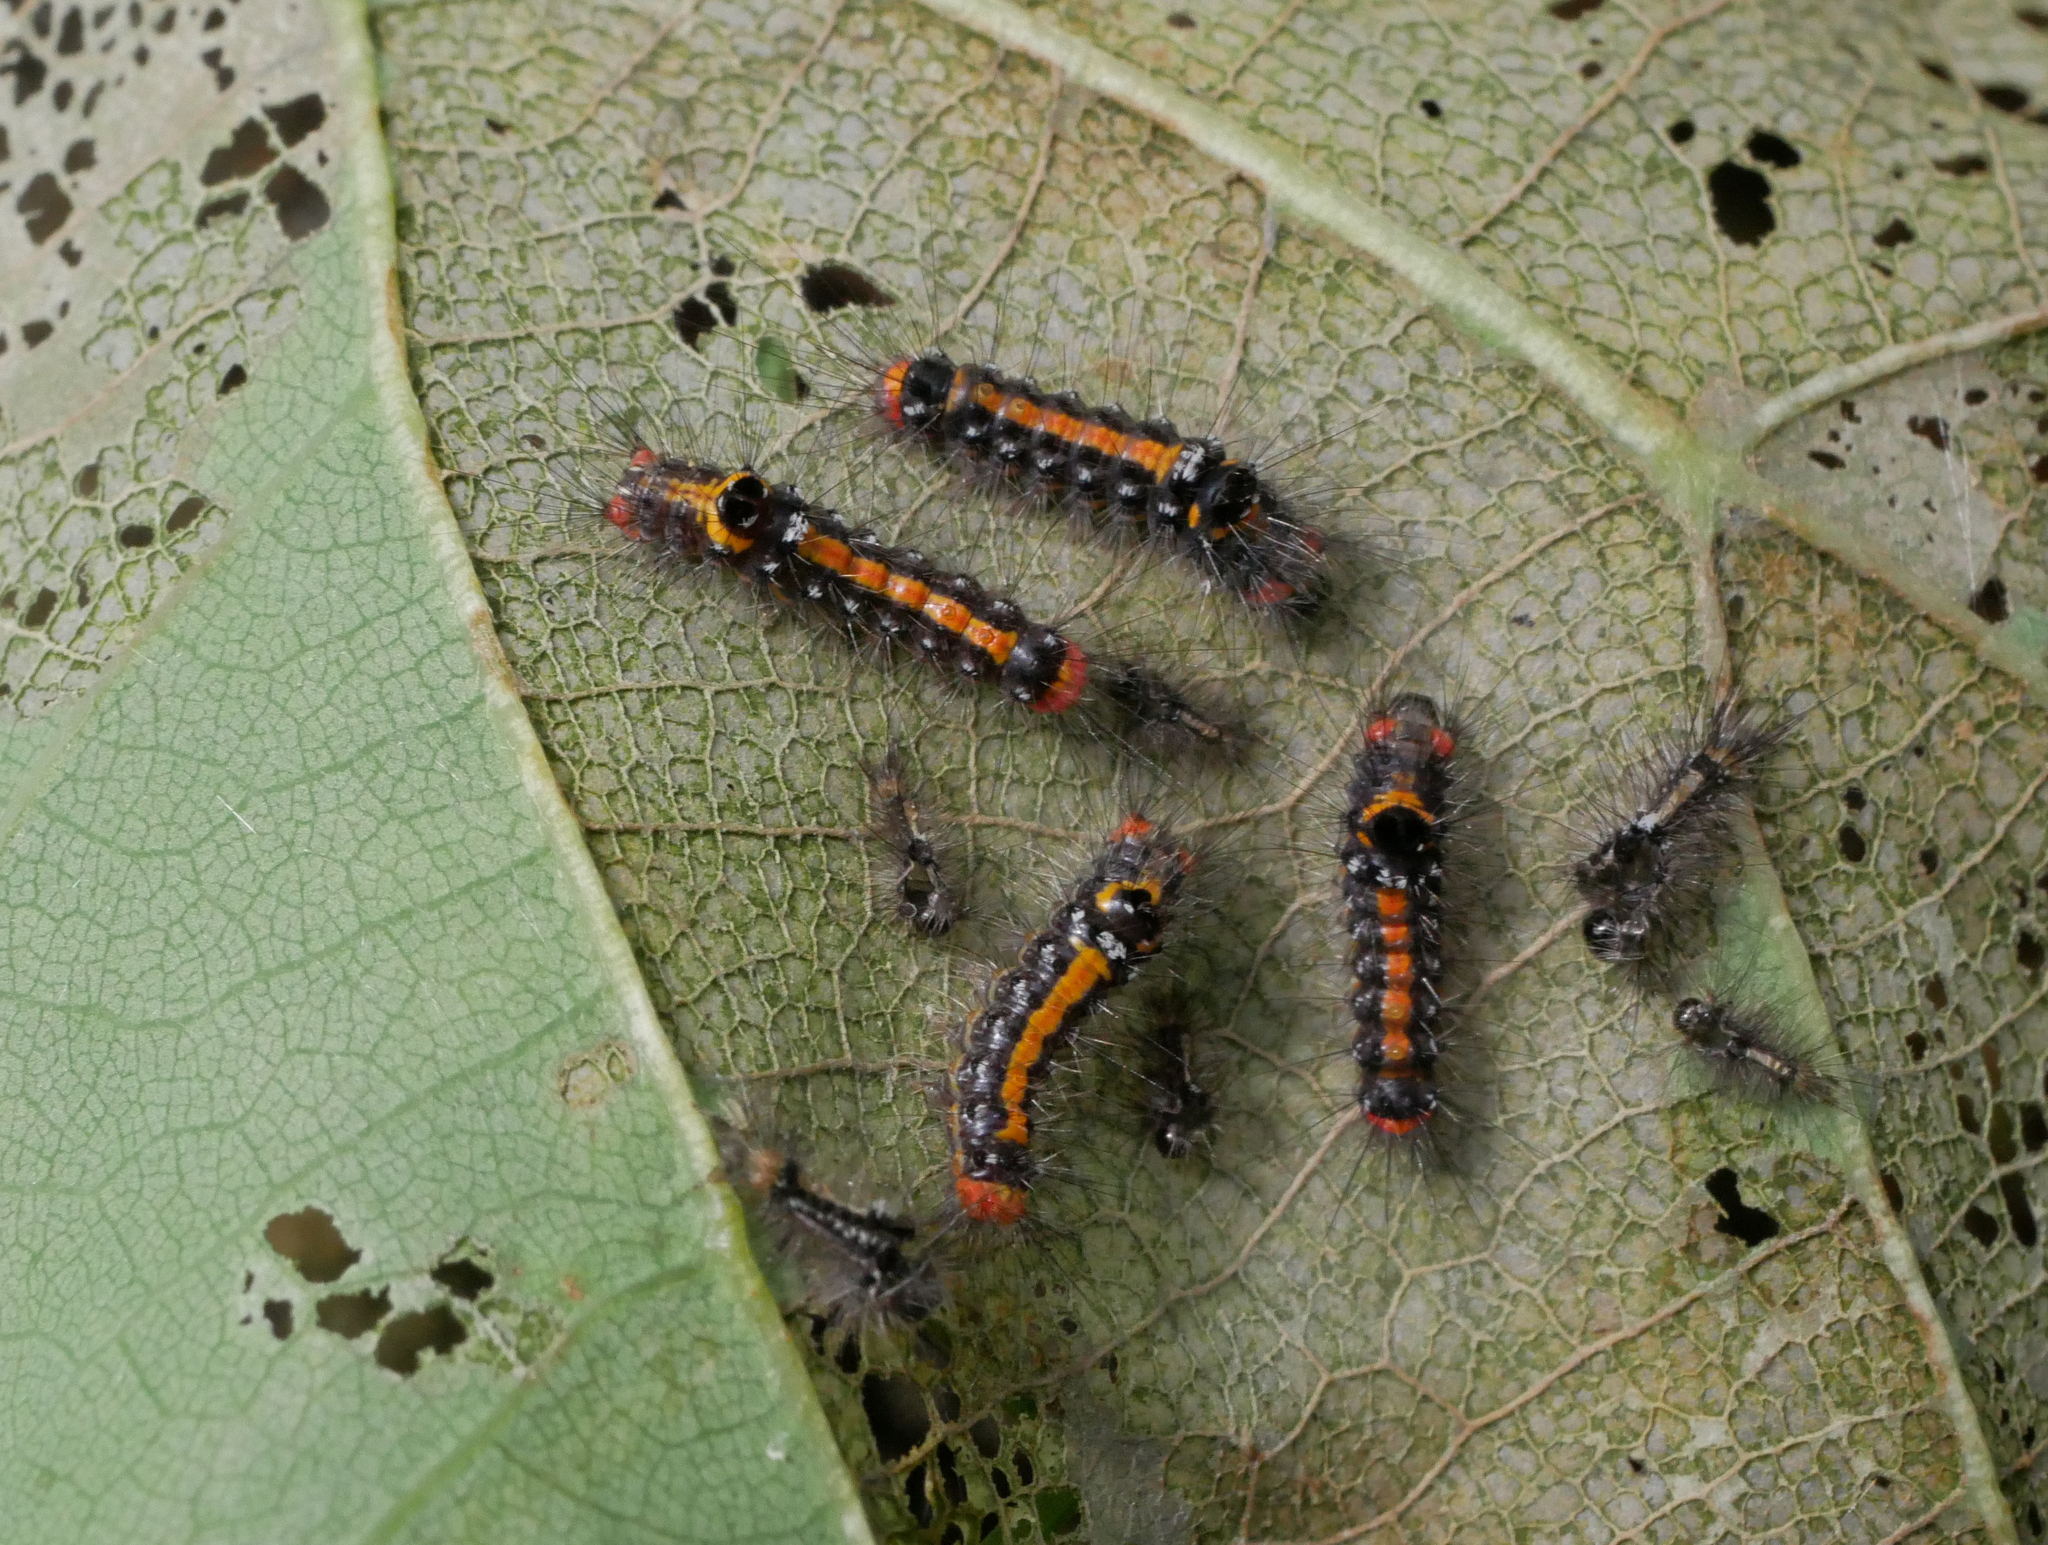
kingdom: Animalia
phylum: Arthropoda
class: Insecta
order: Lepidoptera
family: Erebidae
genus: Sphrageidus
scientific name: Sphrageidus similis
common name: Yellow-tail
